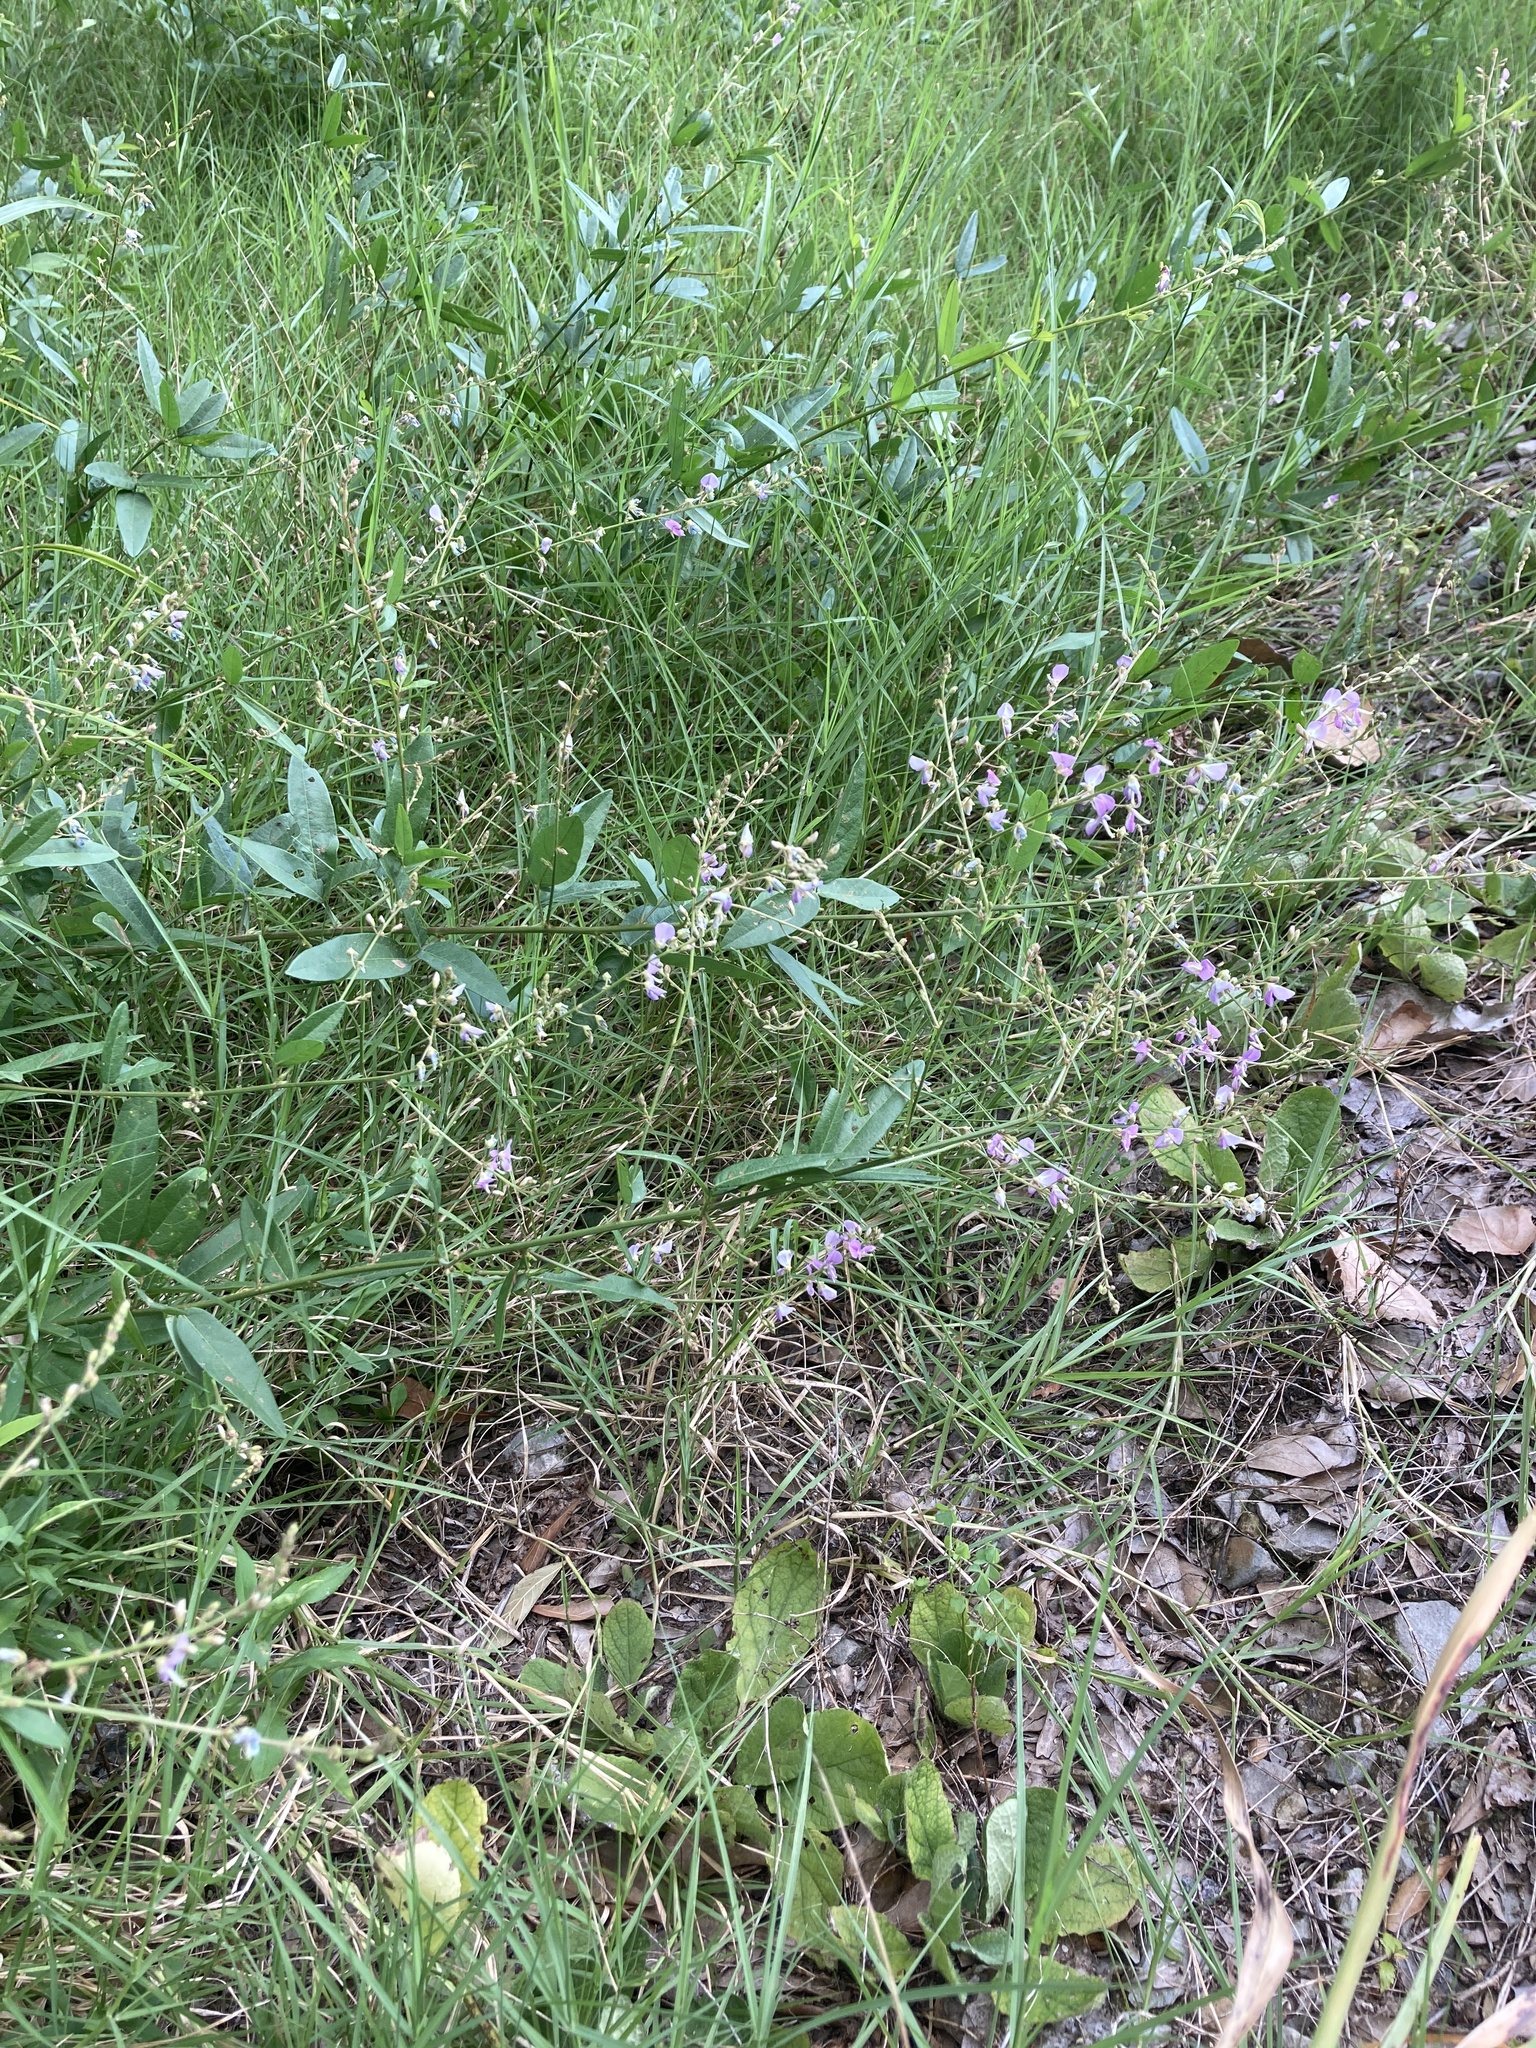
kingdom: Plantae
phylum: Tracheophyta
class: Magnoliopsida
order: Fabales
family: Fabaceae
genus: Desmodium
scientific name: Desmodium paniculatum
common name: Panicled tick-clover
